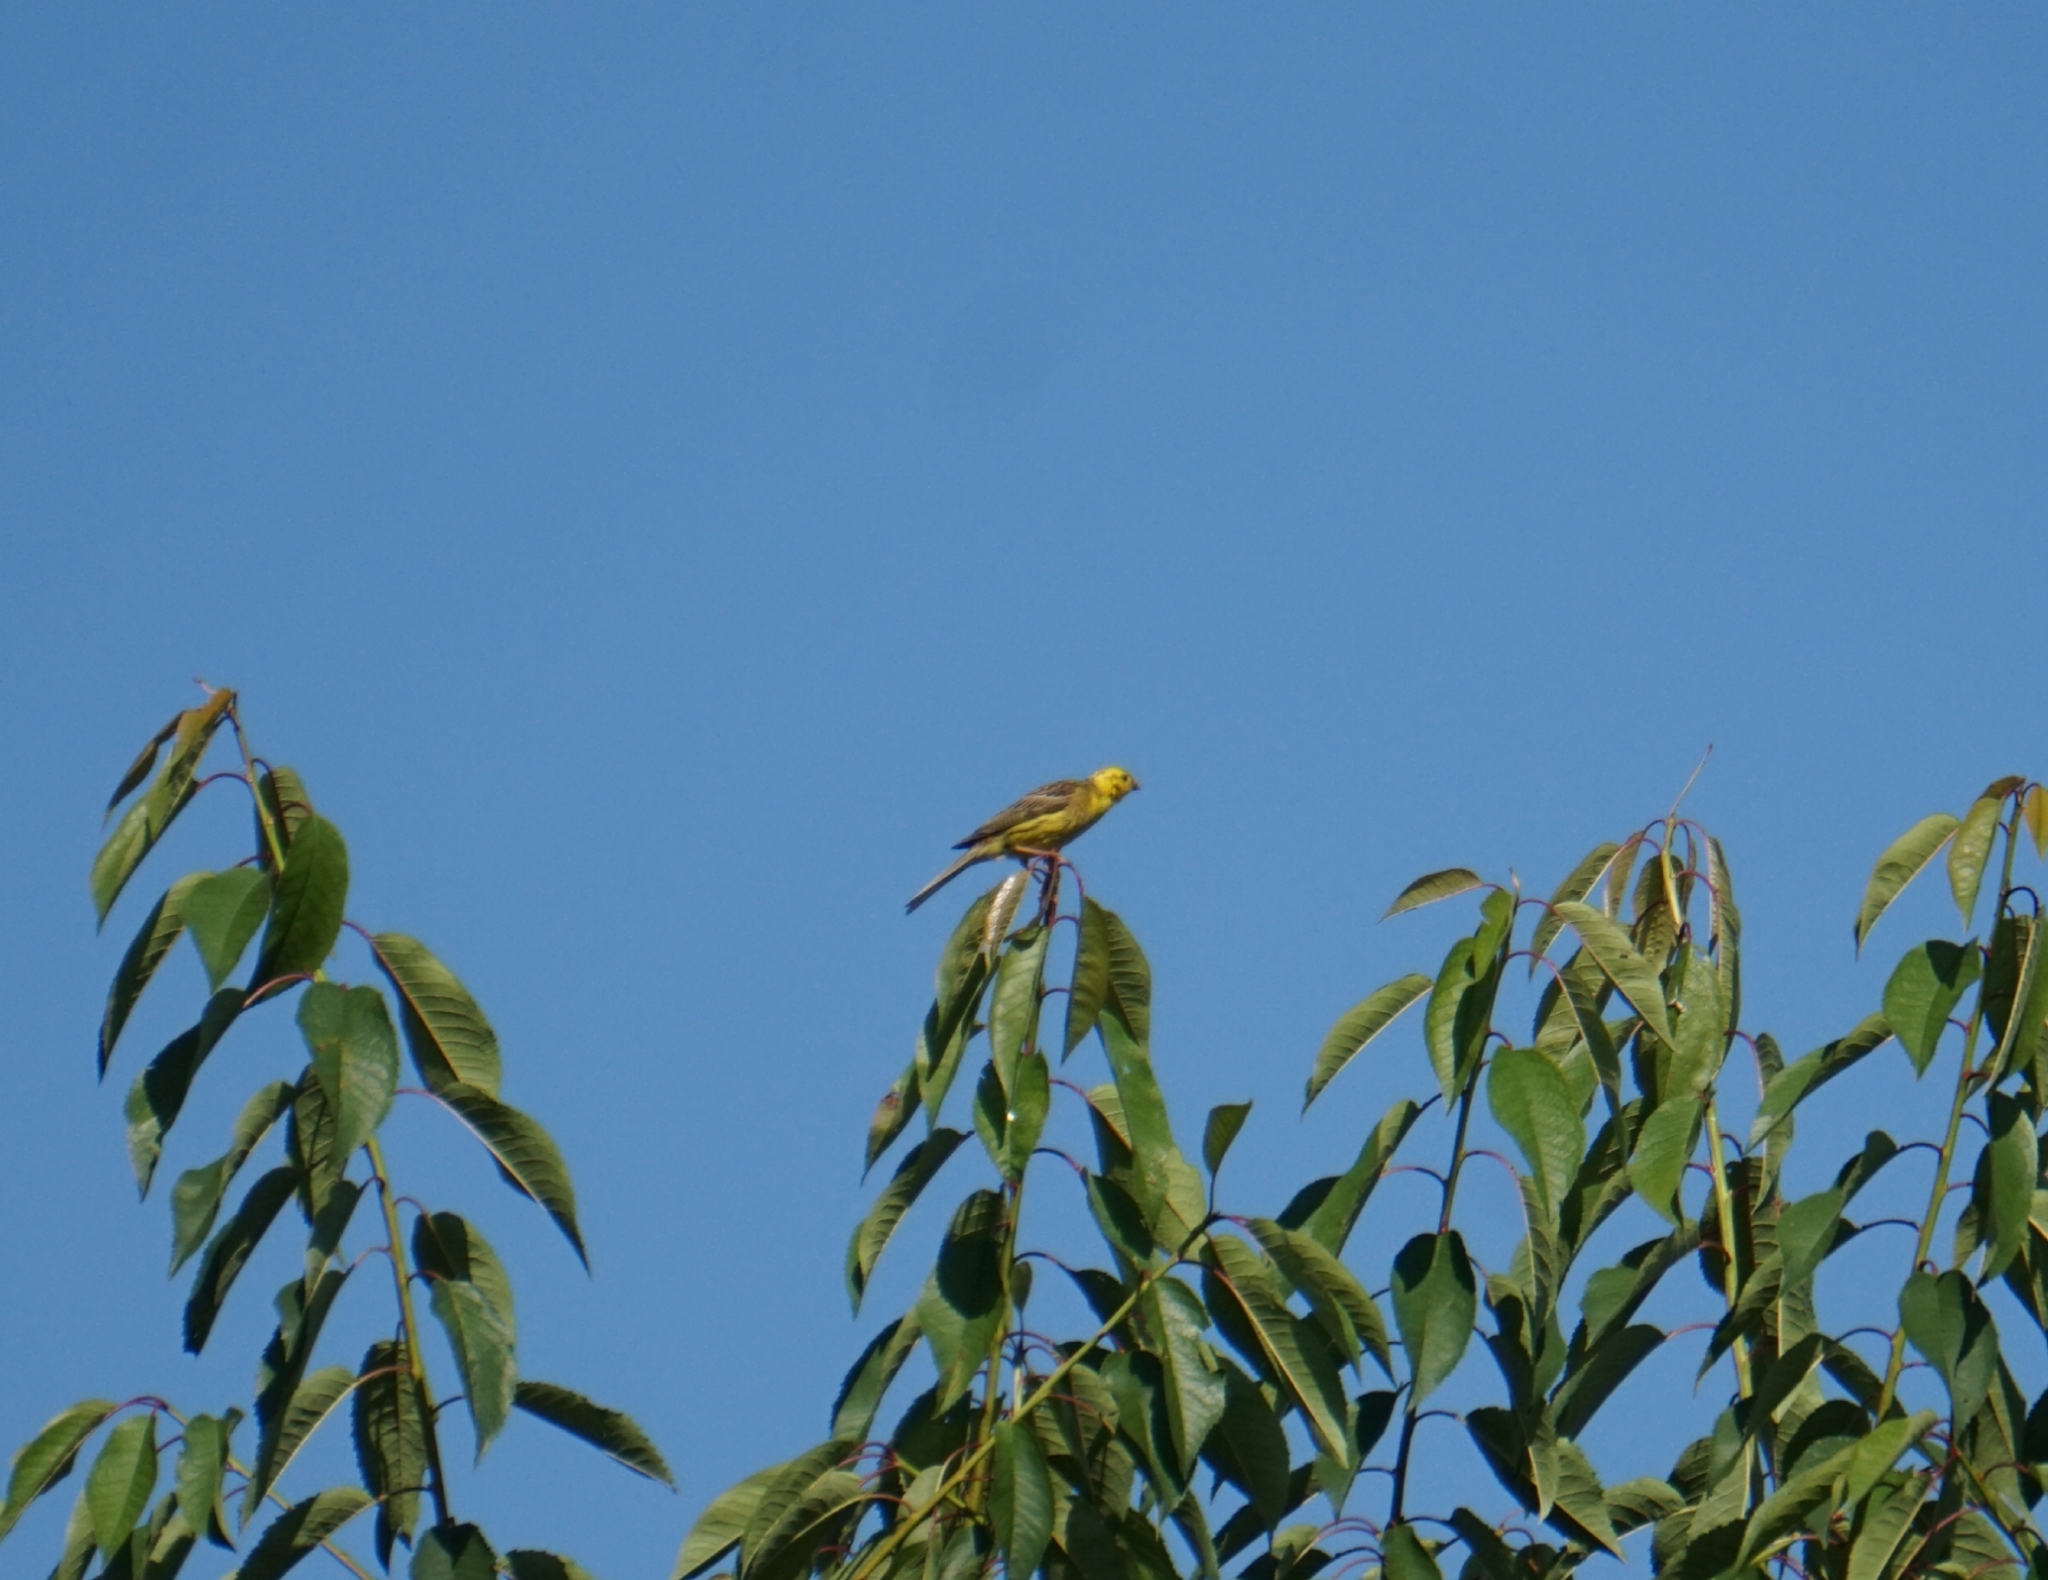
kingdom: Animalia
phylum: Chordata
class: Aves
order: Passeriformes
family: Emberizidae
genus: Emberiza
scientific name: Emberiza citrinella
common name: Yellowhammer
